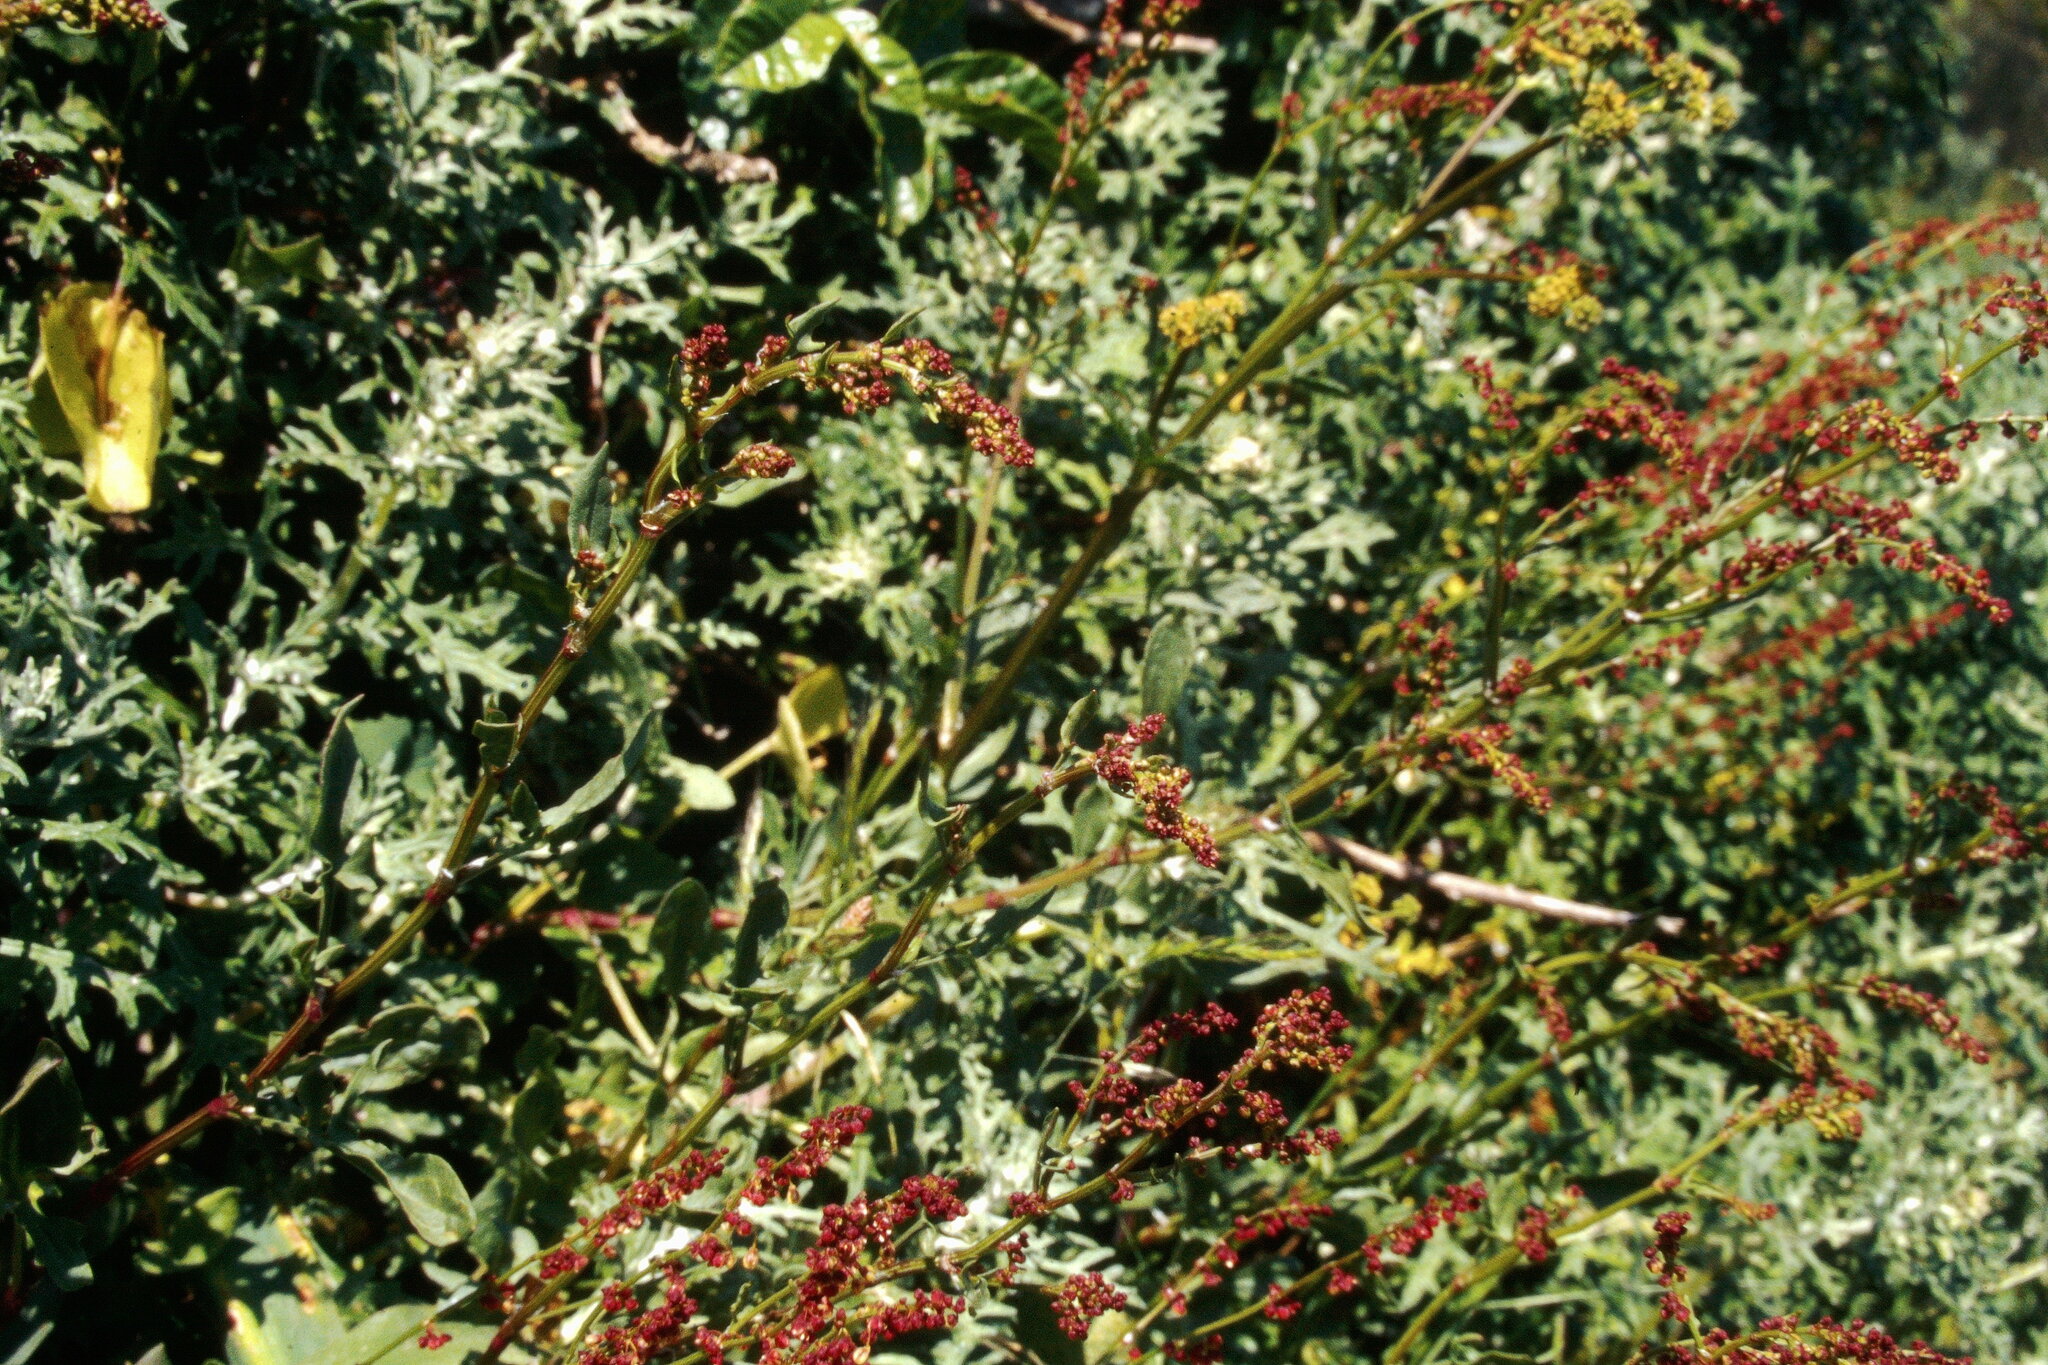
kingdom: Plantae
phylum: Tracheophyta
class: Magnoliopsida
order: Caryophyllales
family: Polygonaceae
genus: Rumex
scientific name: Rumex acetosella
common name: Common sheep sorrel
